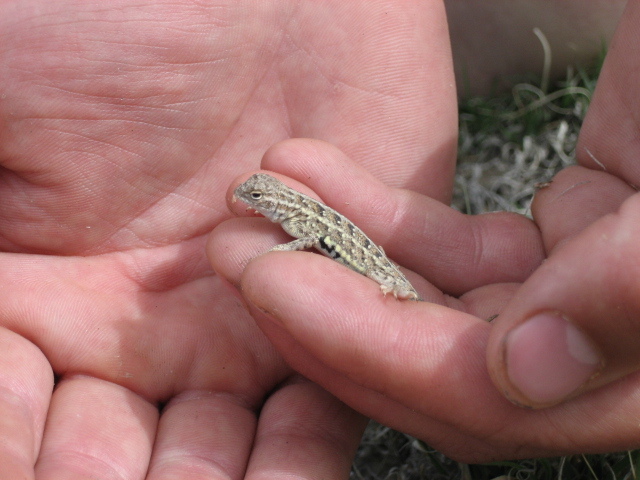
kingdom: Animalia
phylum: Chordata
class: Squamata
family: Phrynosomatidae
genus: Holbrookia
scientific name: Holbrookia maculata
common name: Lesser earless lizard
